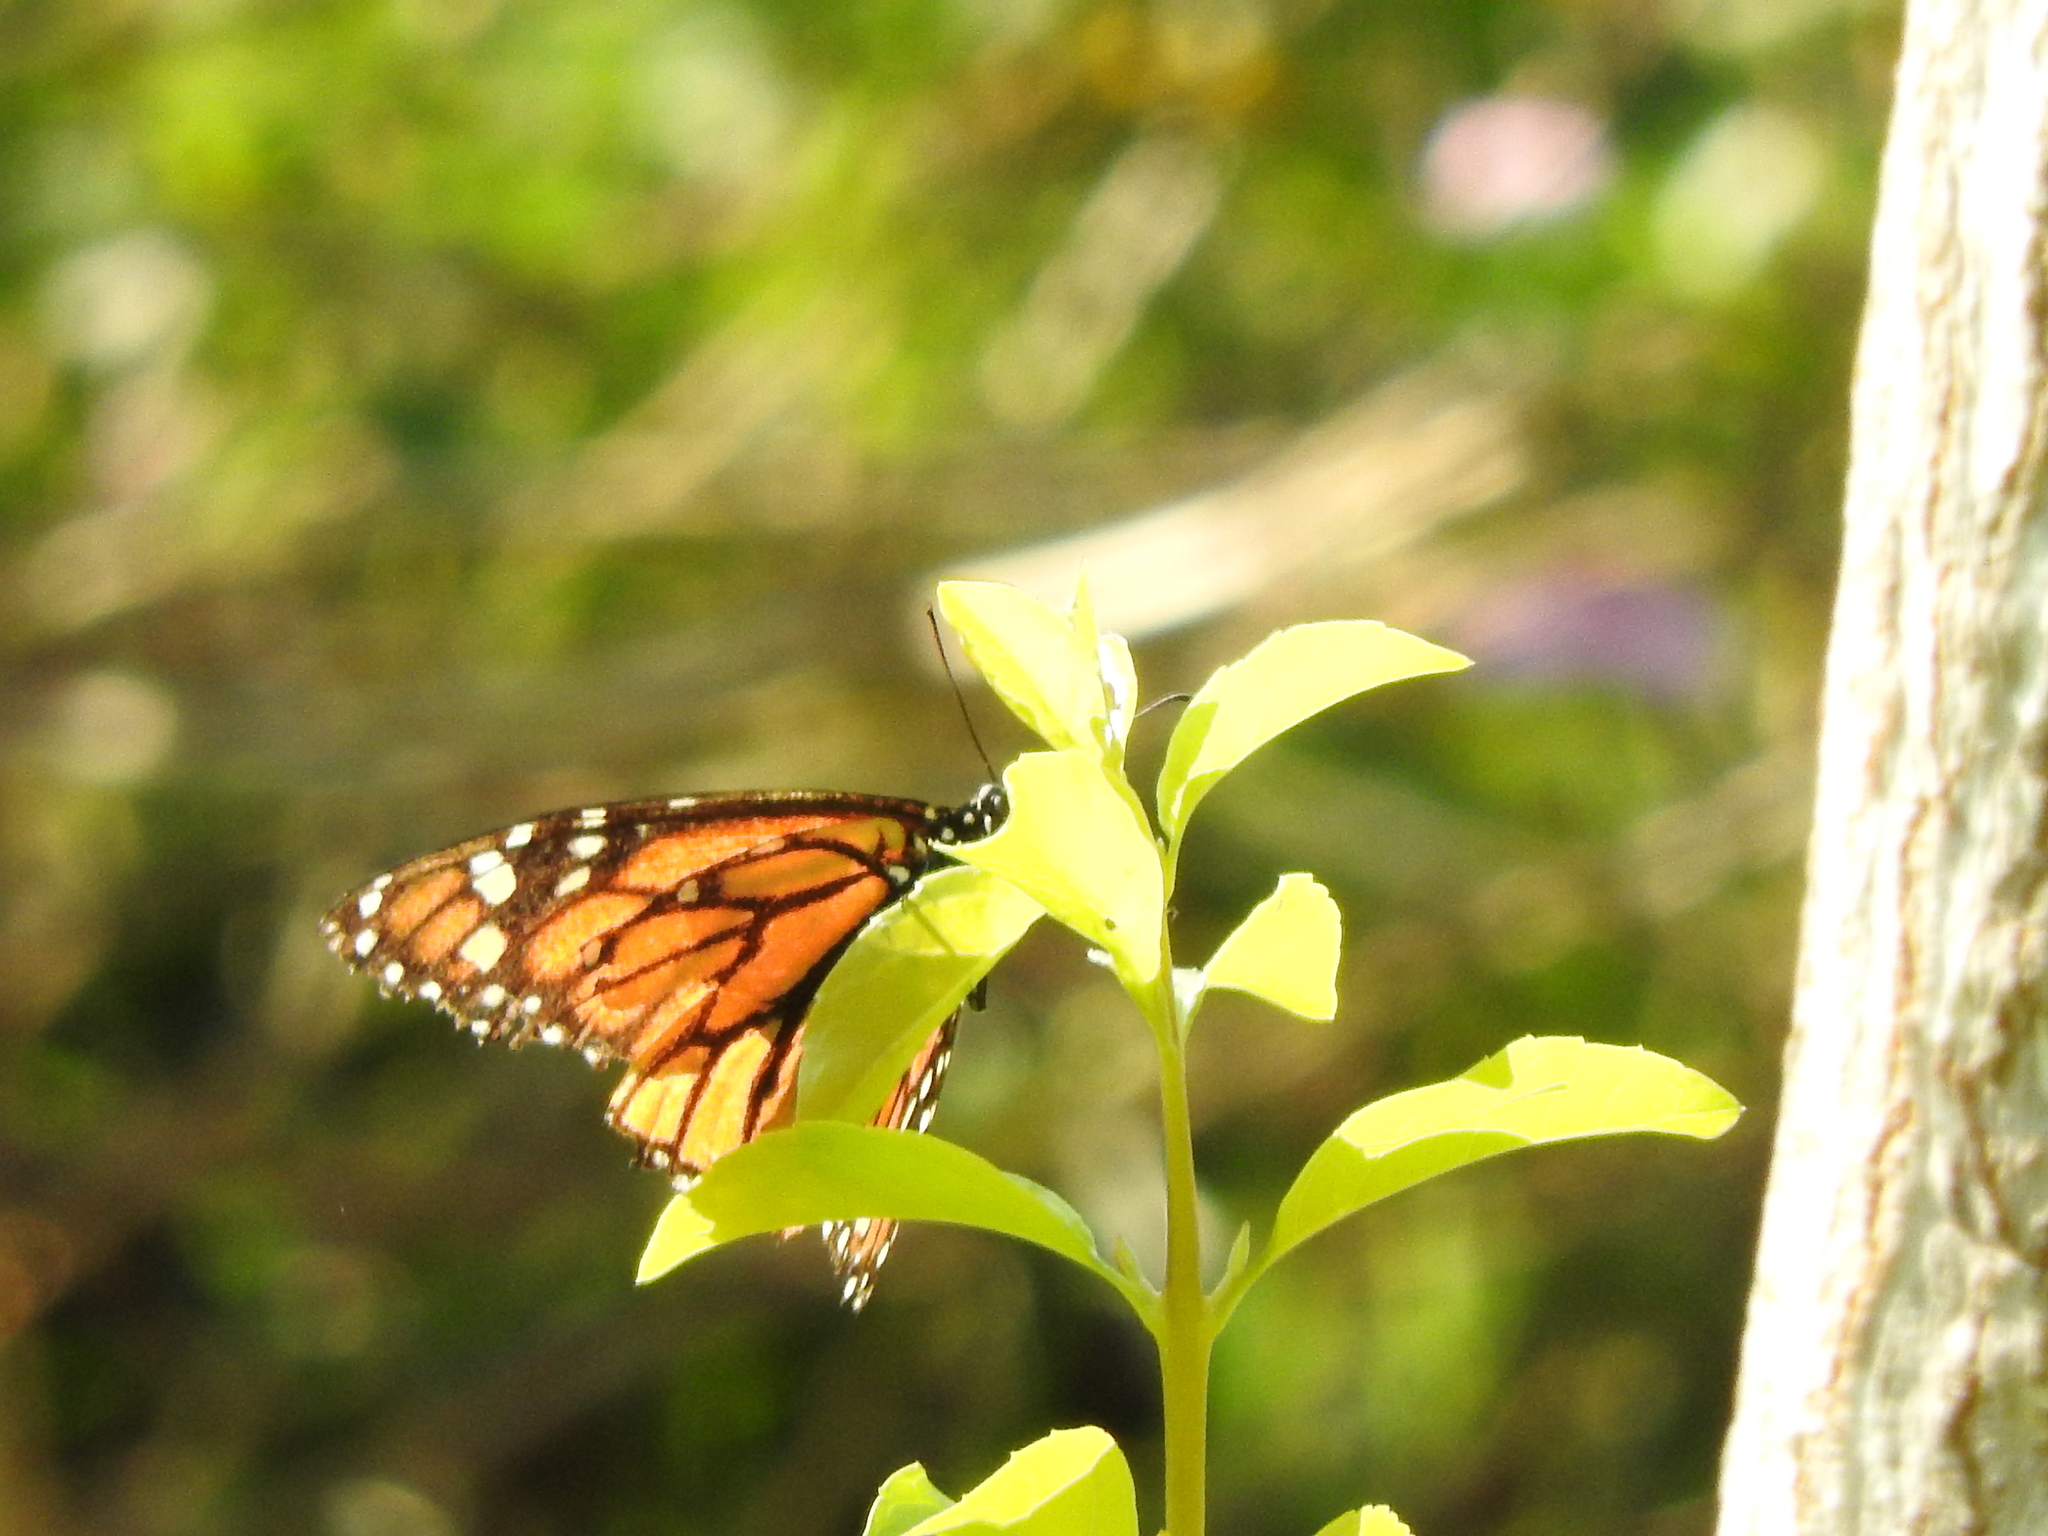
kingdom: Animalia
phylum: Arthropoda
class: Insecta
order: Lepidoptera
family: Nymphalidae
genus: Danaus
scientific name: Danaus plexippus
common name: Monarch
